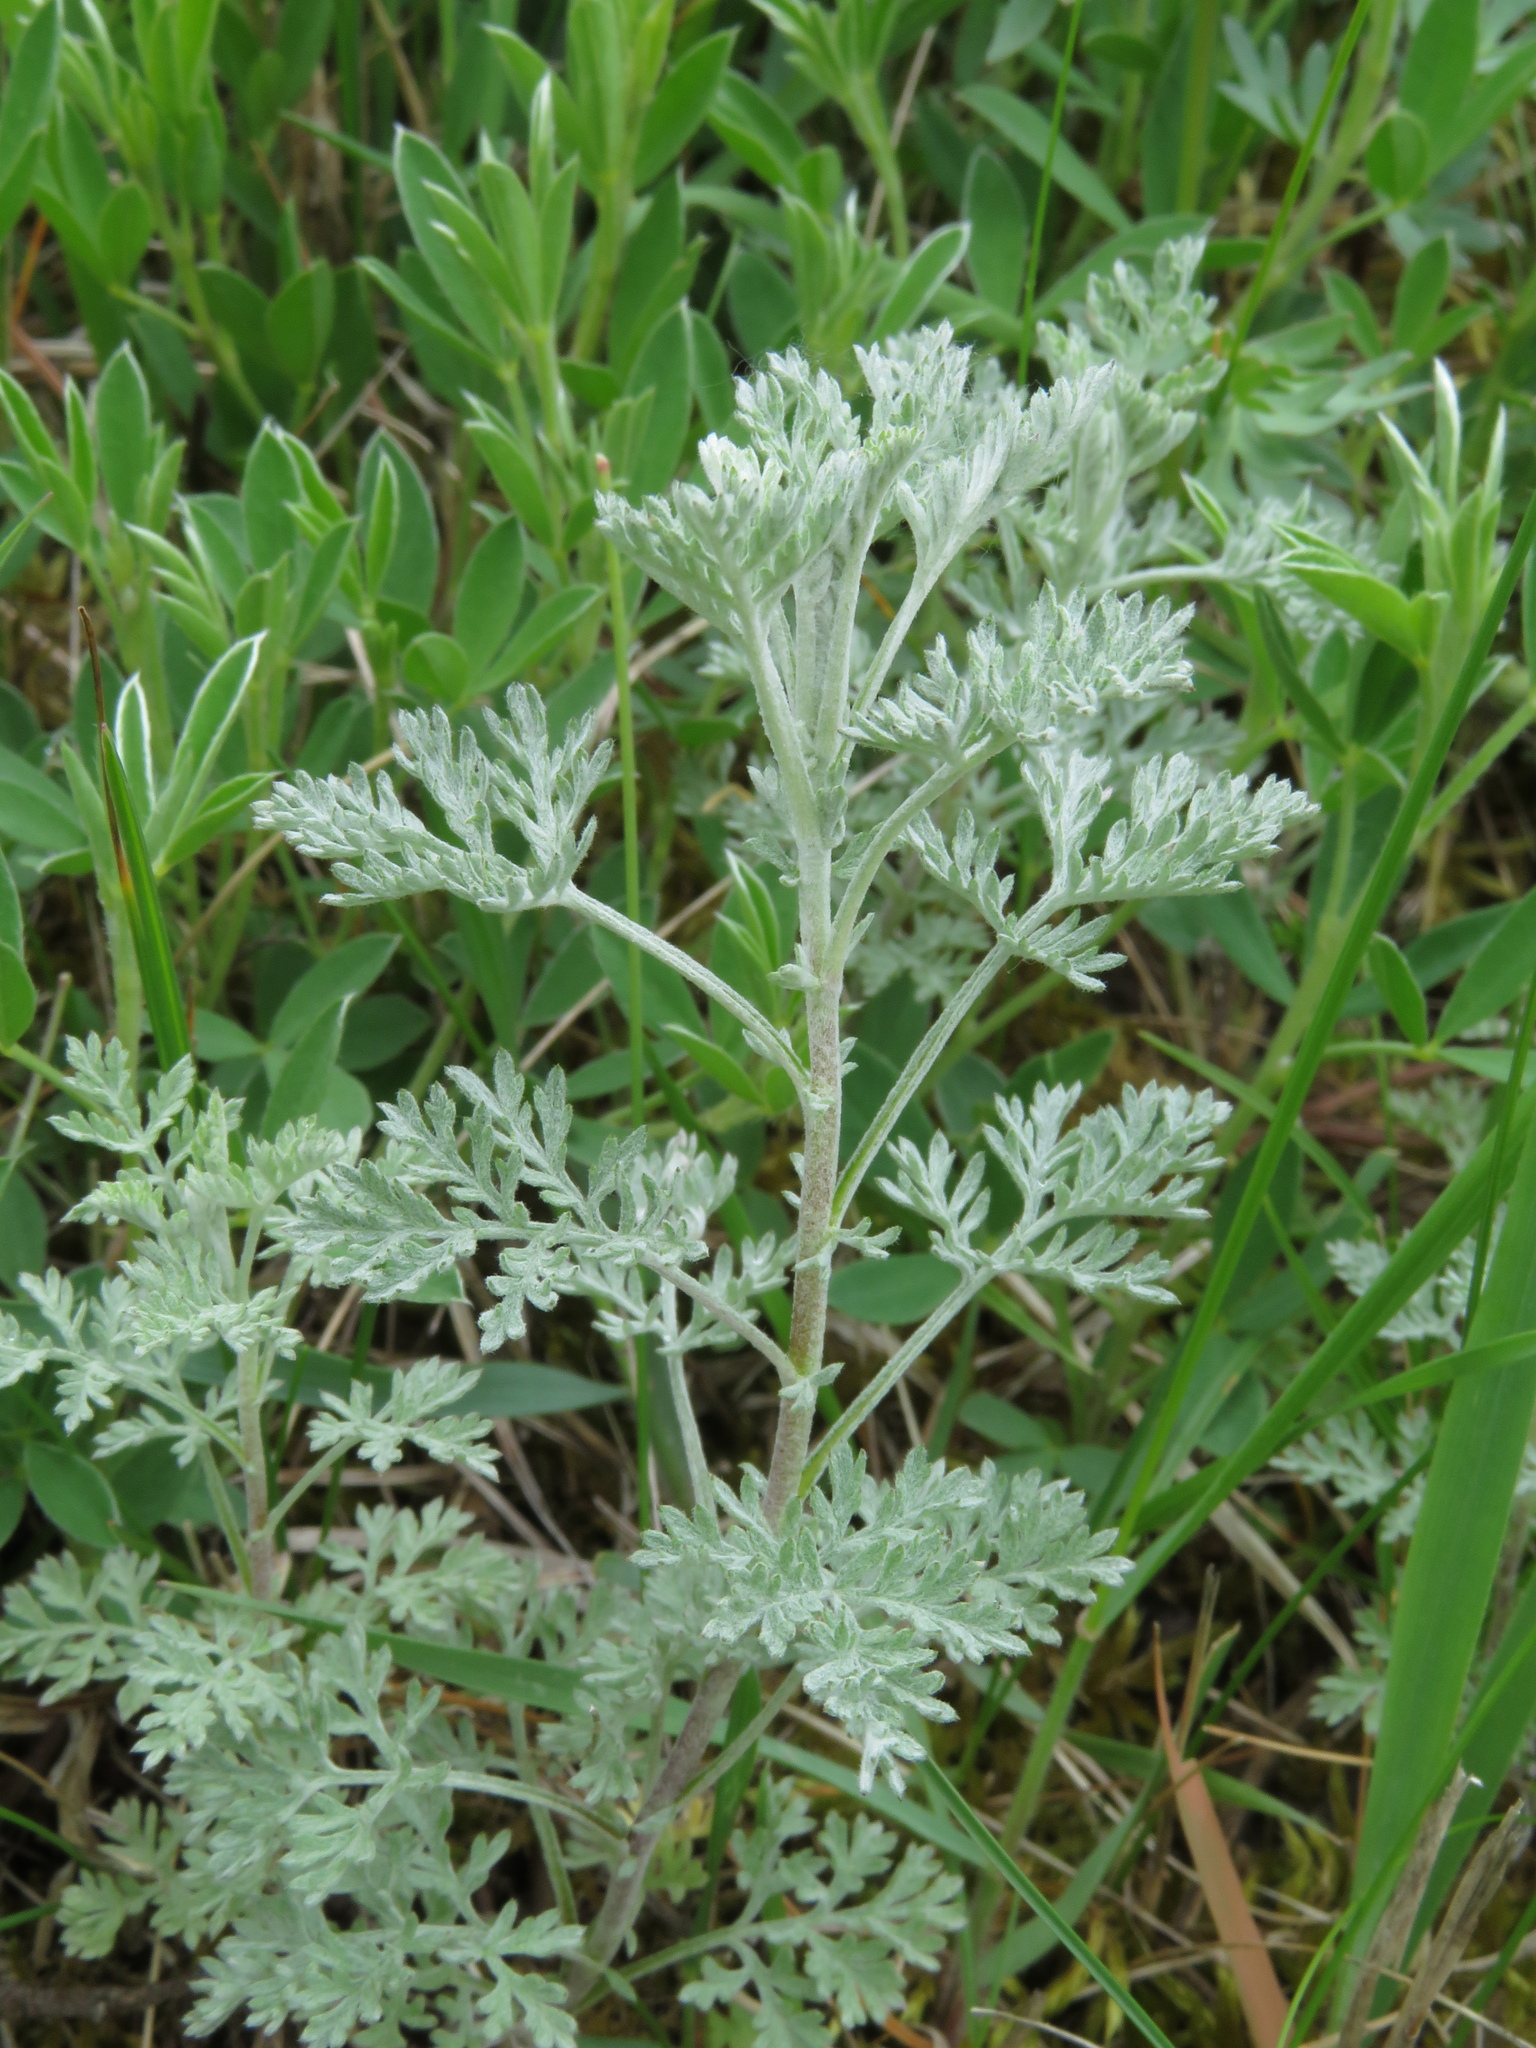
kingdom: Plantae
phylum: Tracheophyta
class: Magnoliopsida
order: Asterales
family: Asteraceae
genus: Artemisia
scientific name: Artemisia pontica
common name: Roman wormwood
